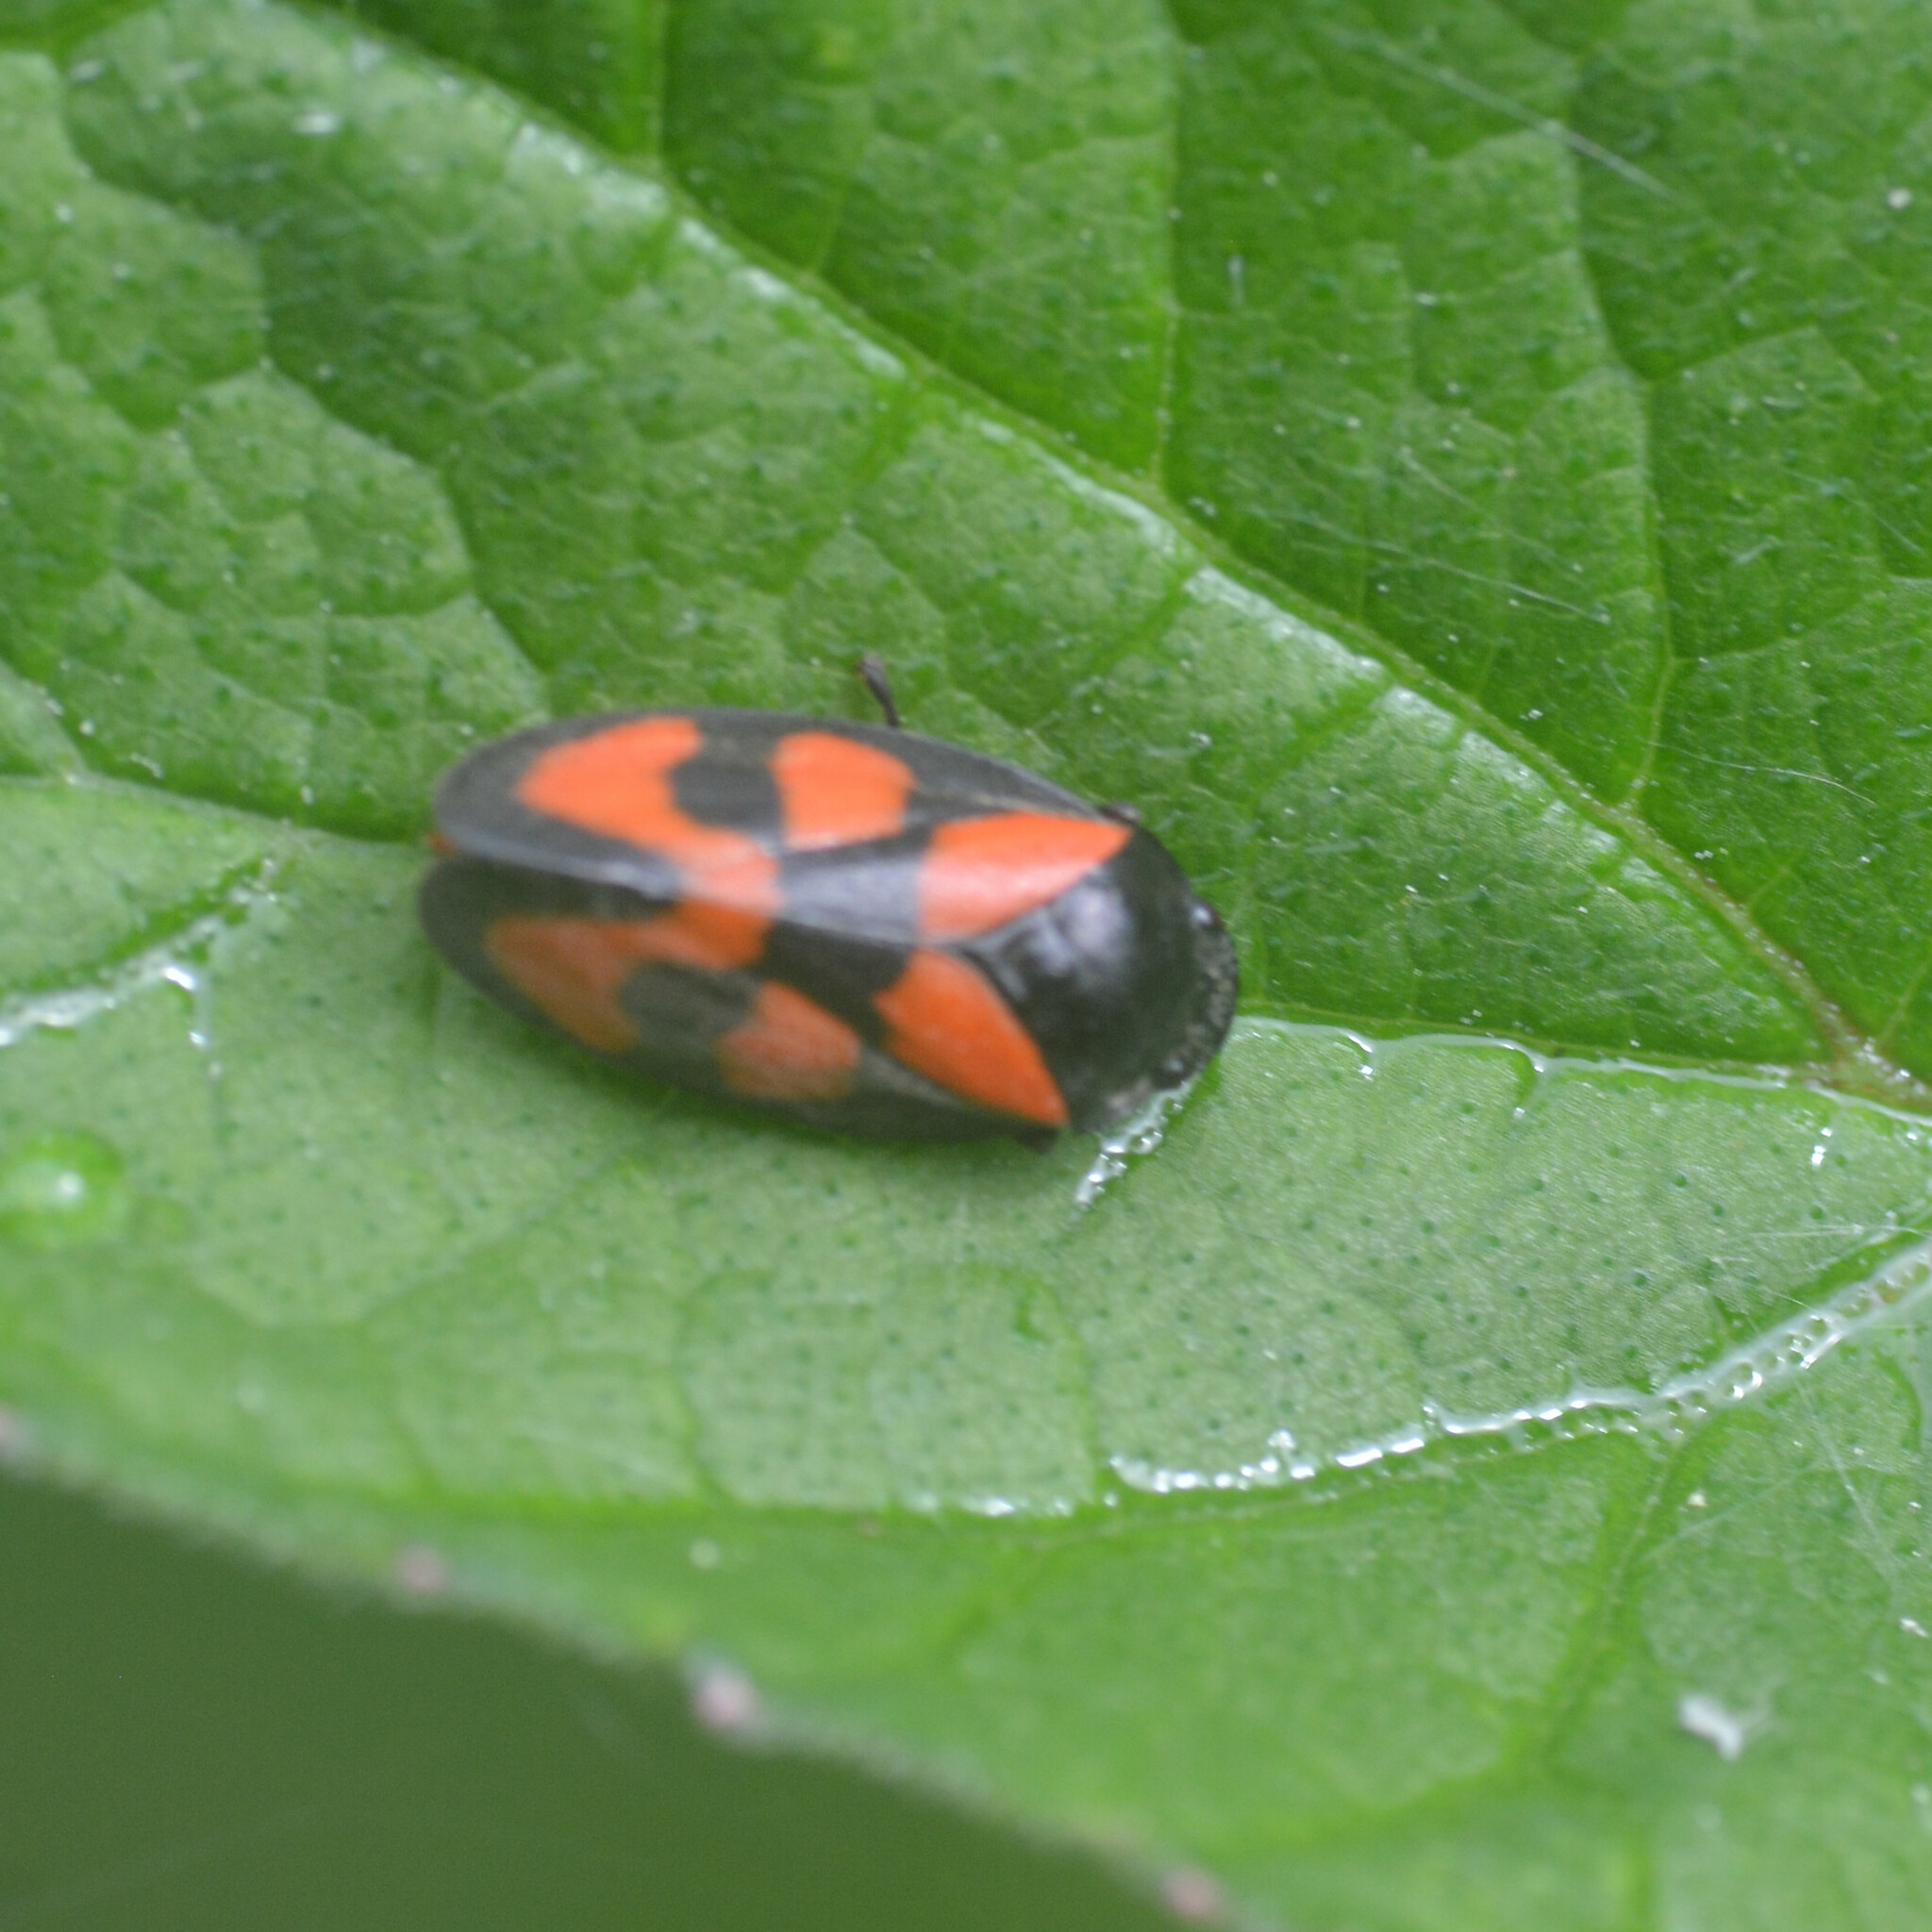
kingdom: Animalia
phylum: Arthropoda
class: Insecta
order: Hemiptera
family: Cercopidae
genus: Cercopis
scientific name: Cercopis vulnerata
